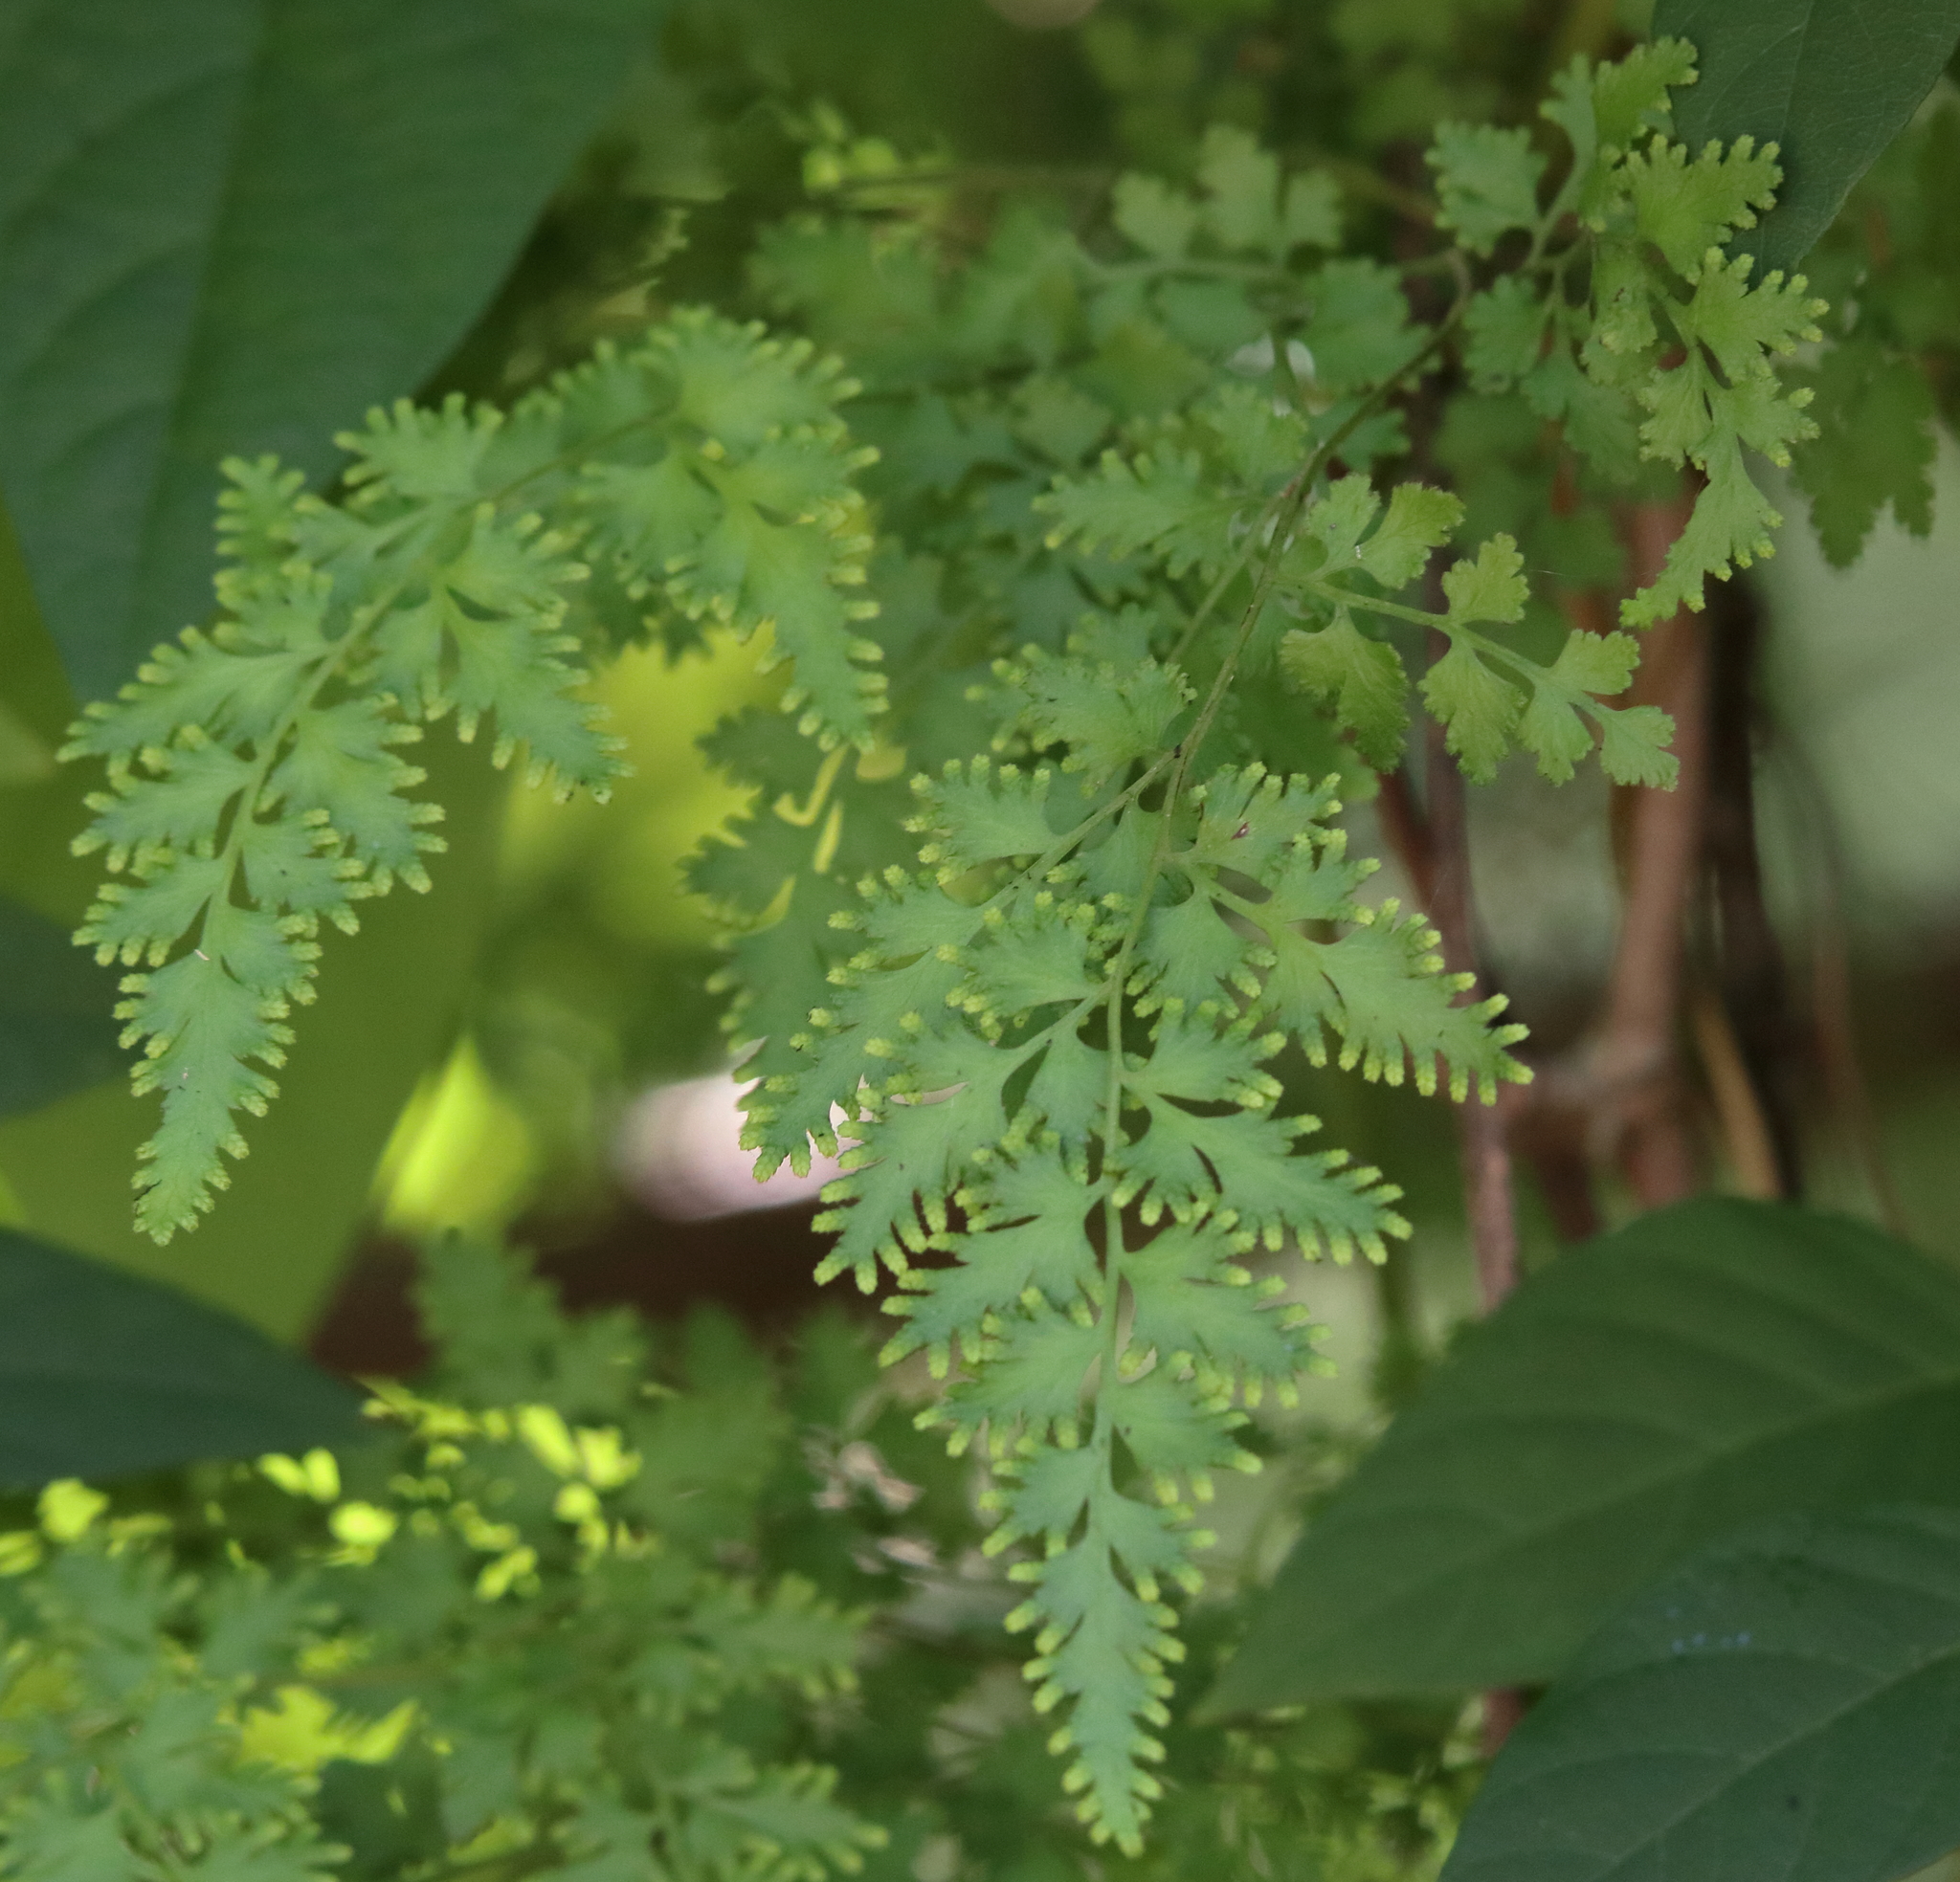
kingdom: Plantae
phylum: Tracheophyta
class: Polypodiopsida
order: Schizaeales
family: Lygodiaceae
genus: Lygodium
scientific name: Lygodium japonicum
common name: Japanese climbing fern
